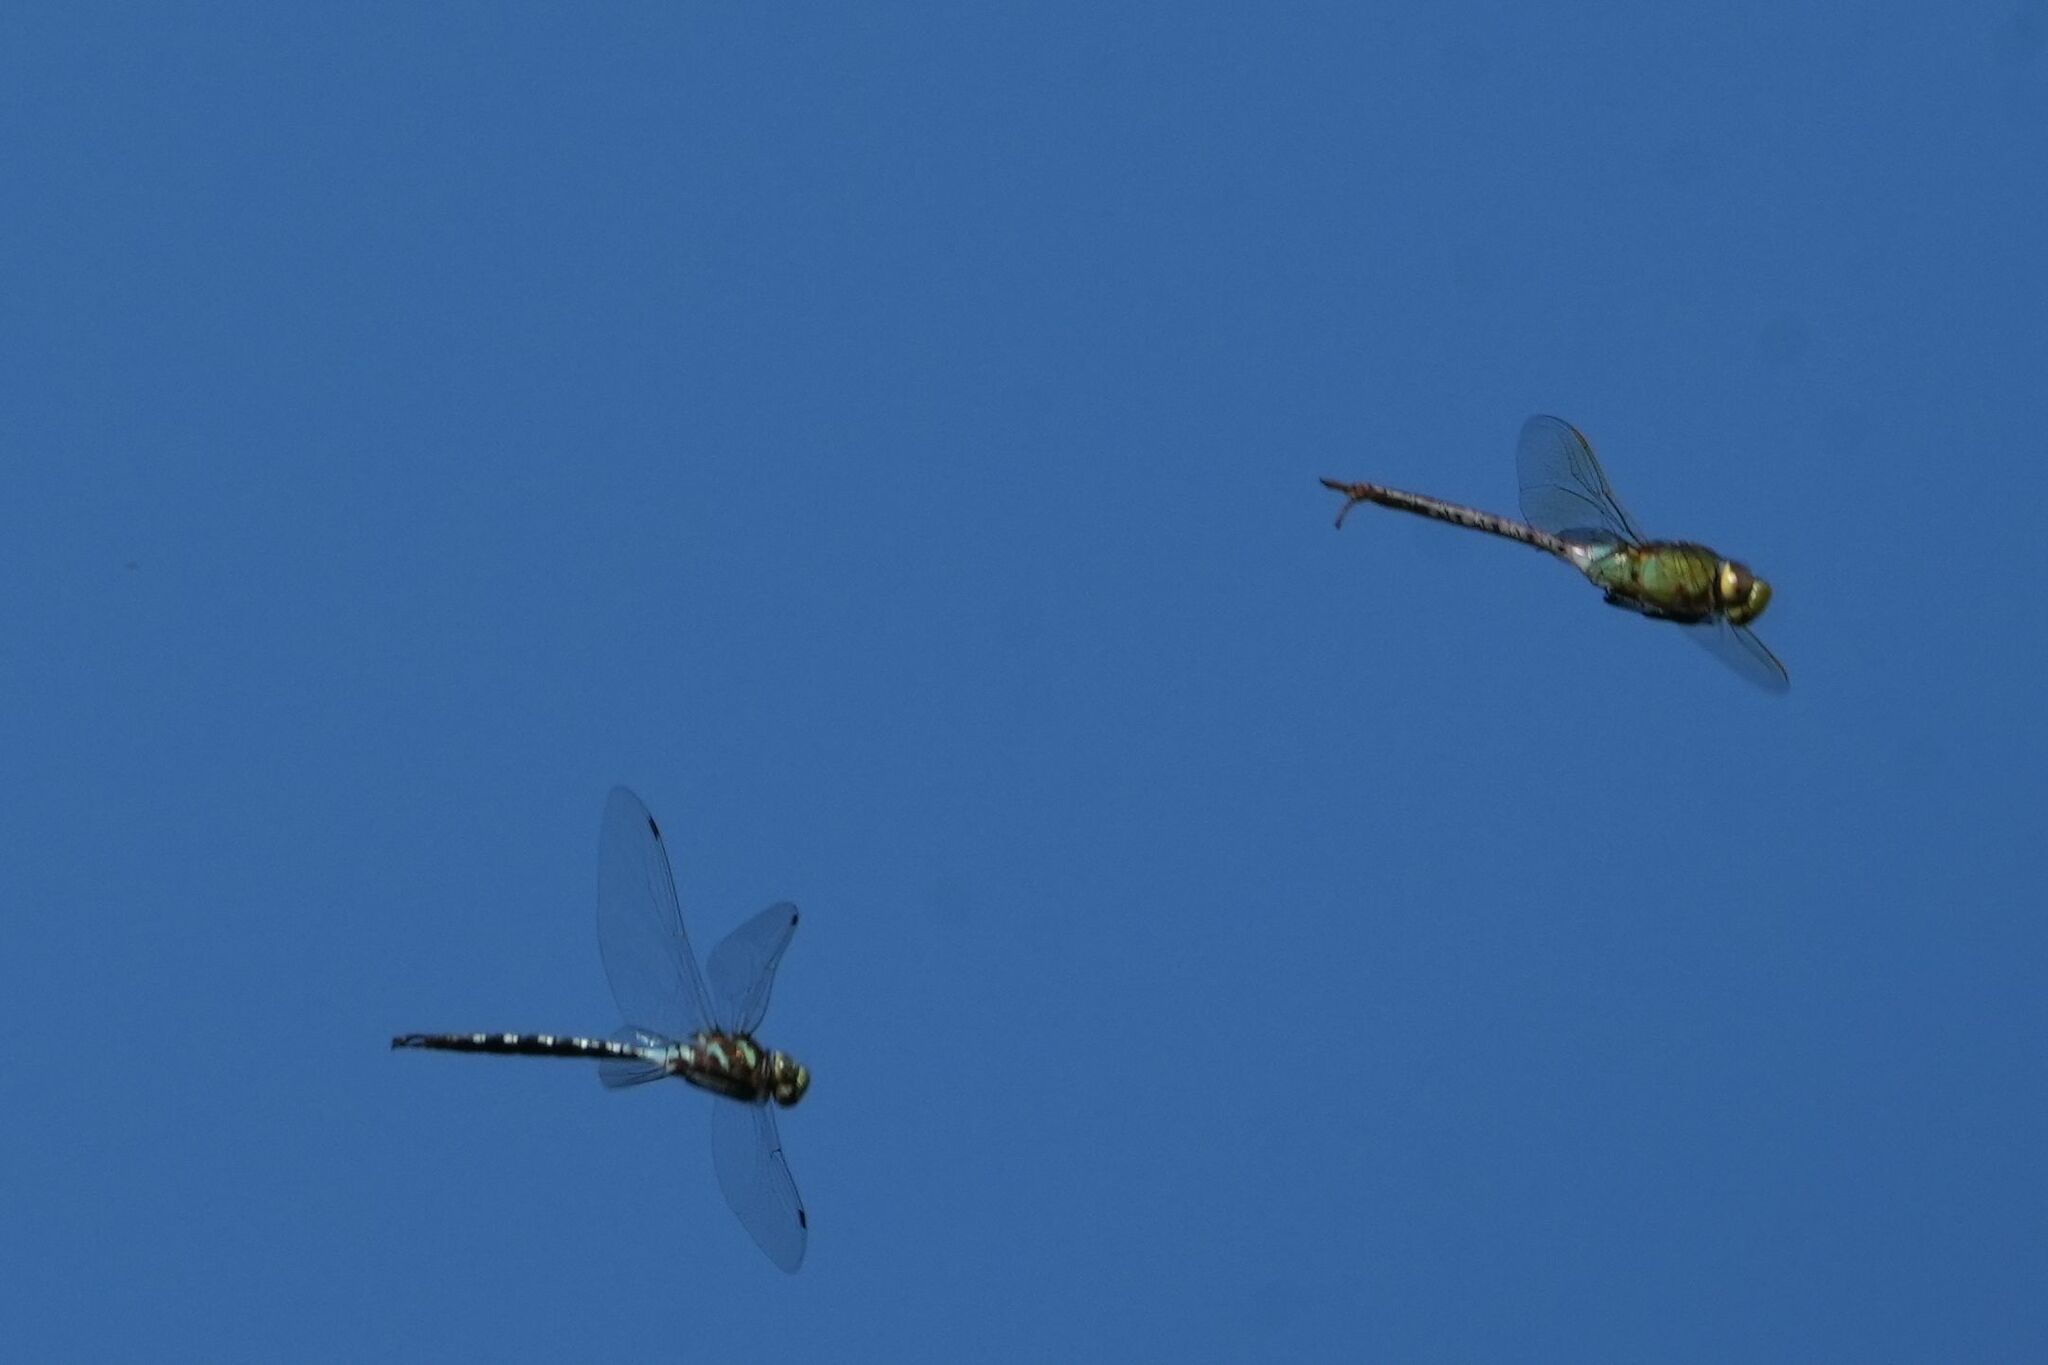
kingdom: Animalia
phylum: Arthropoda
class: Insecta
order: Odonata
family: Aeshnidae
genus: Aeshna
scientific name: Aeshna constricta
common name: Lance-tipped darner
